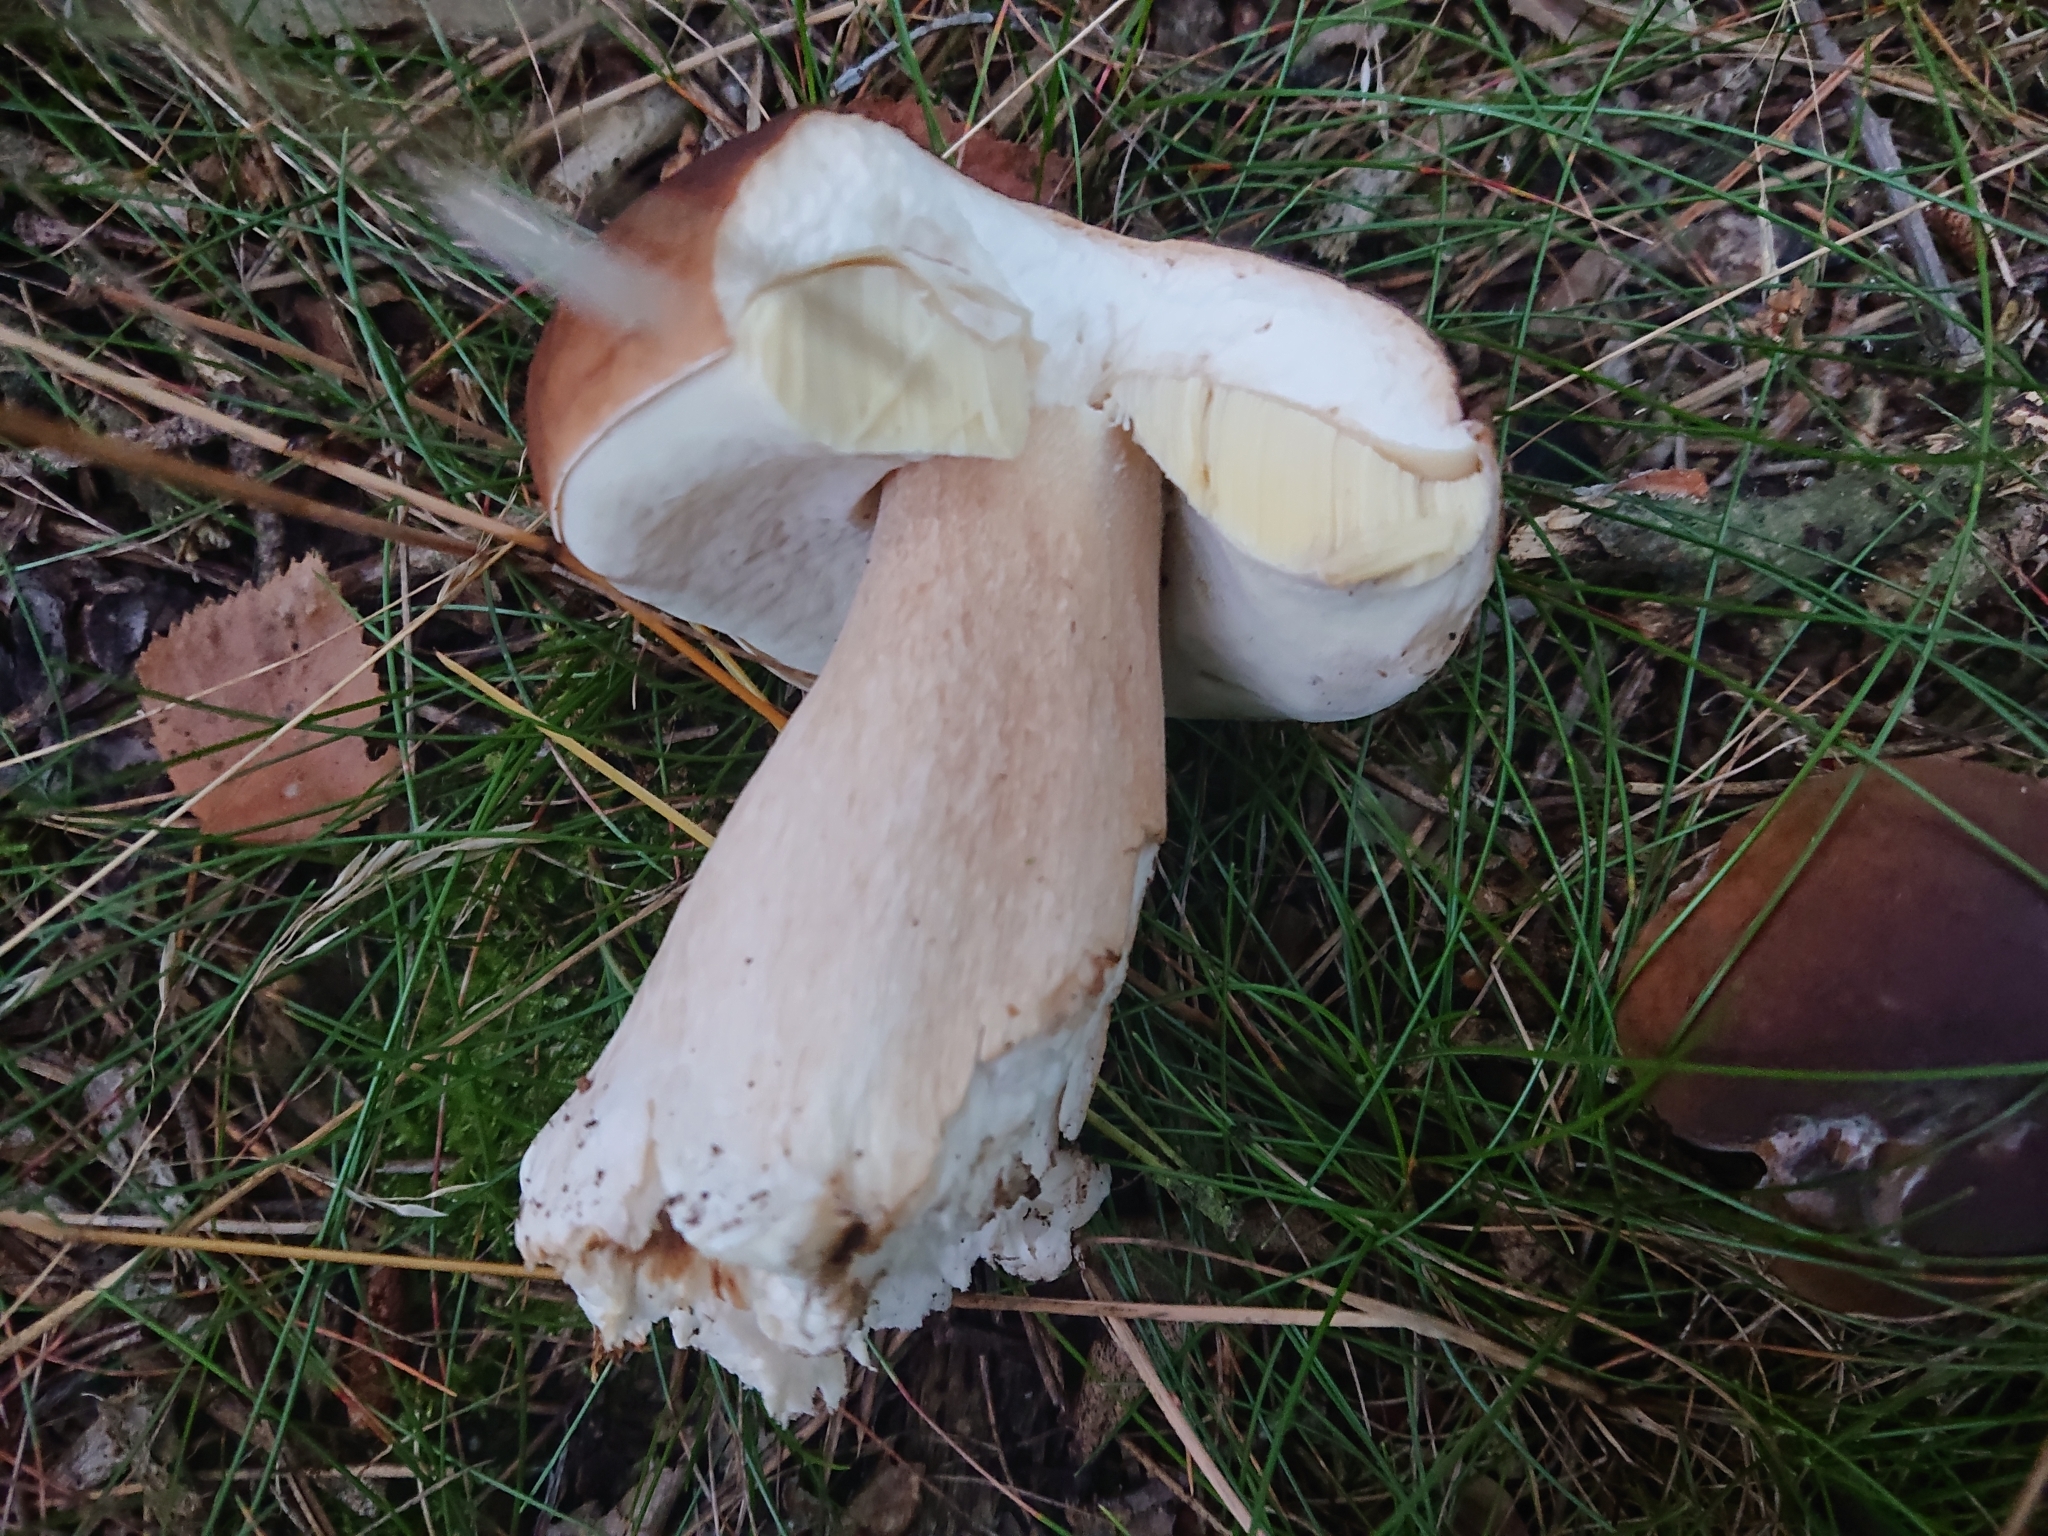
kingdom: Fungi
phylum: Basidiomycota
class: Agaricomycetes
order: Boletales
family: Boletaceae
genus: Boletus
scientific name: Boletus edulis
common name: Cep
